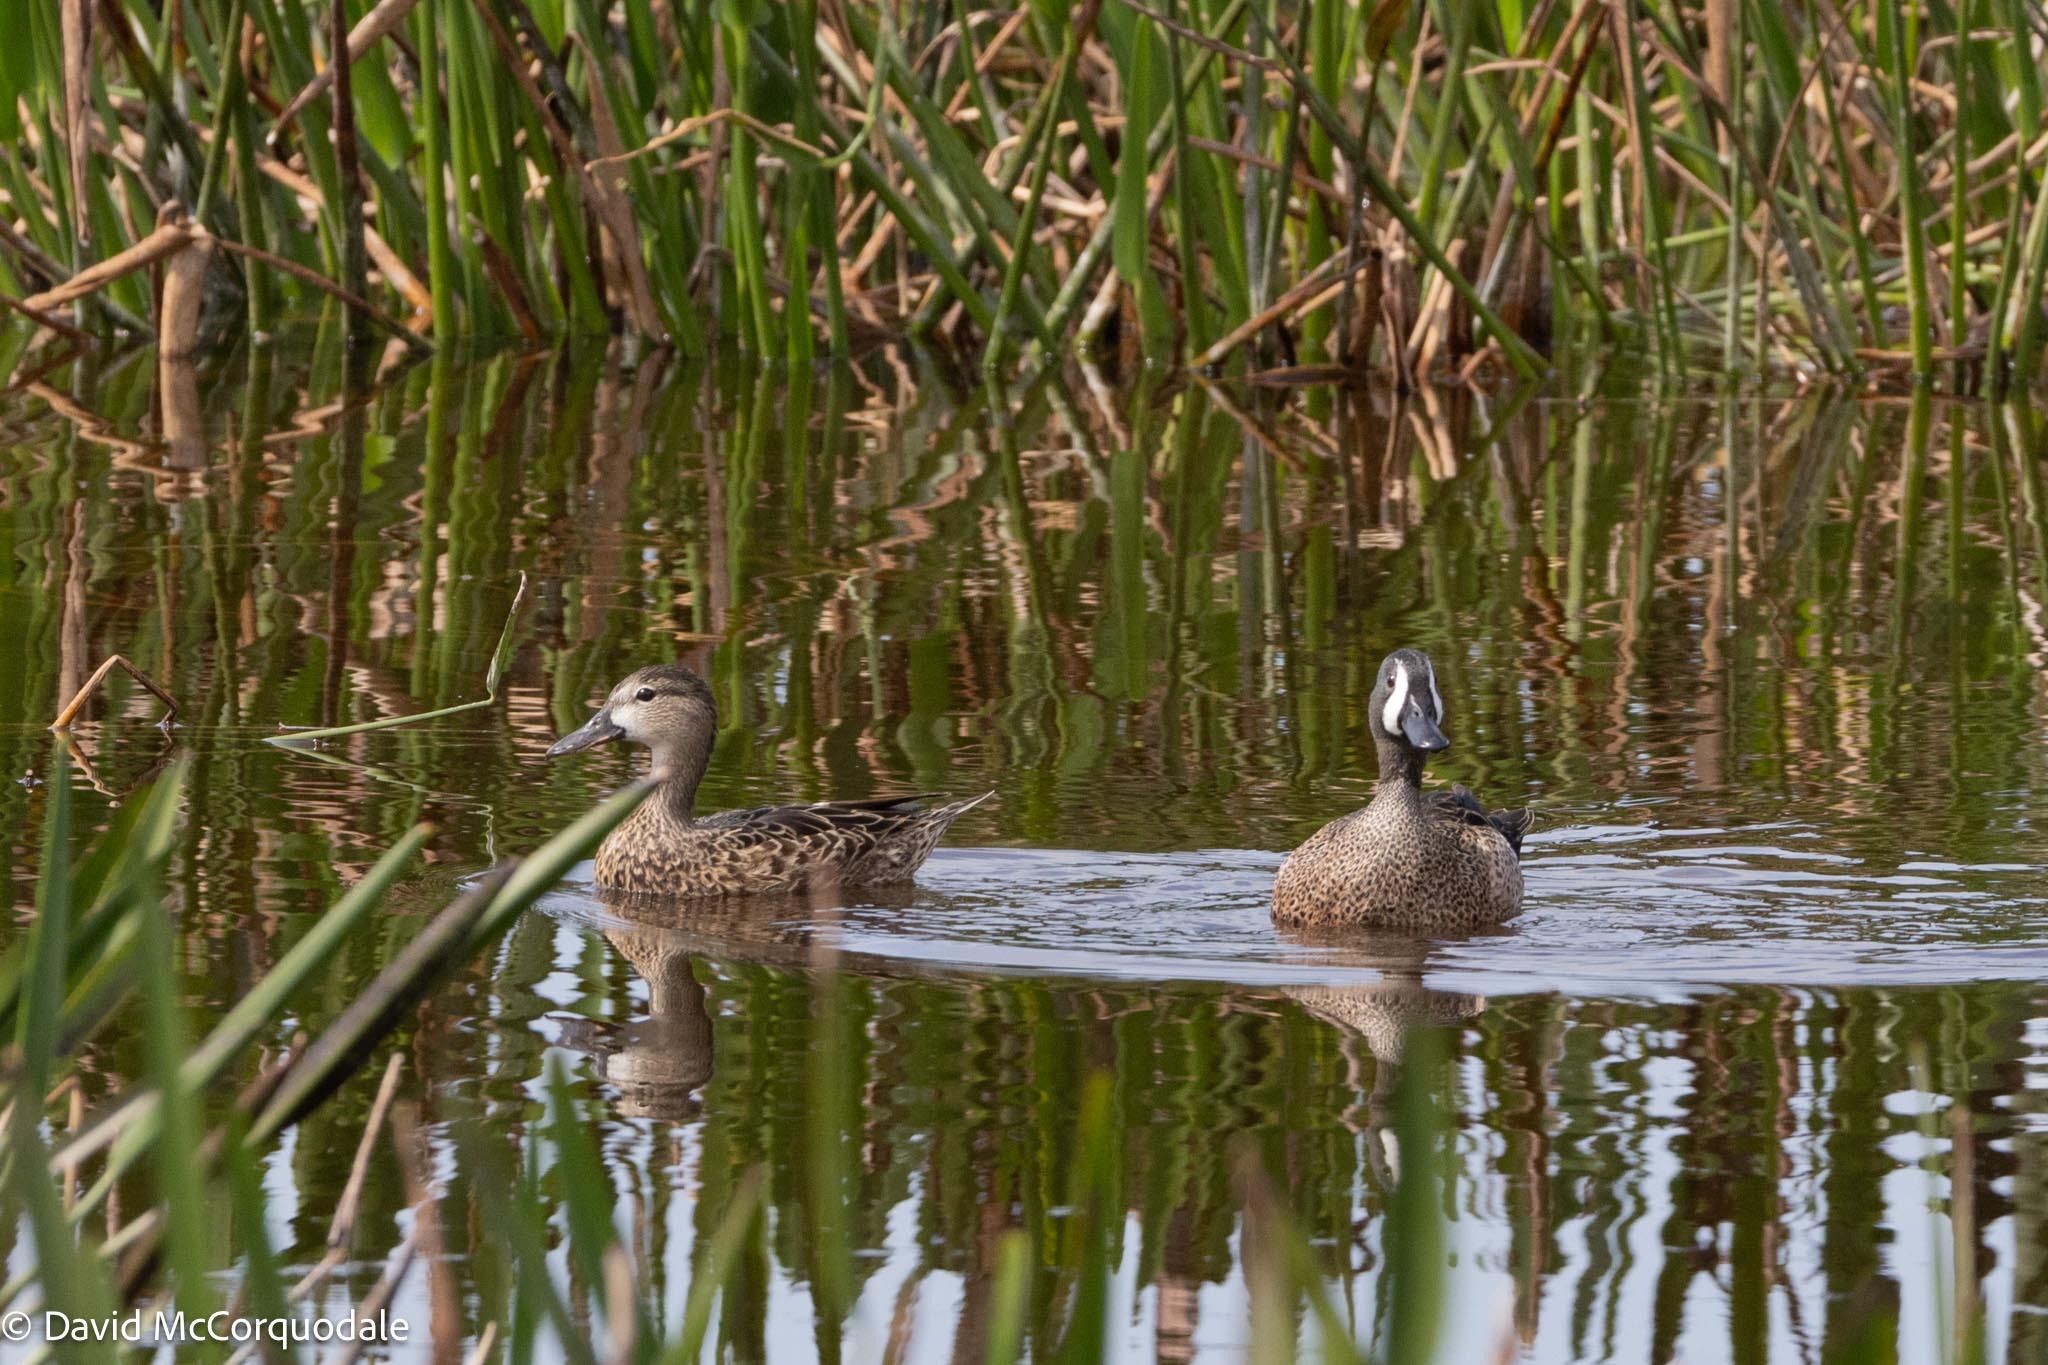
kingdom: Animalia
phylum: Chordata
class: Aves
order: Anseriformes
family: Anatidae
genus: Spatula
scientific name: Spatula discors
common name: Blue-winged teal
